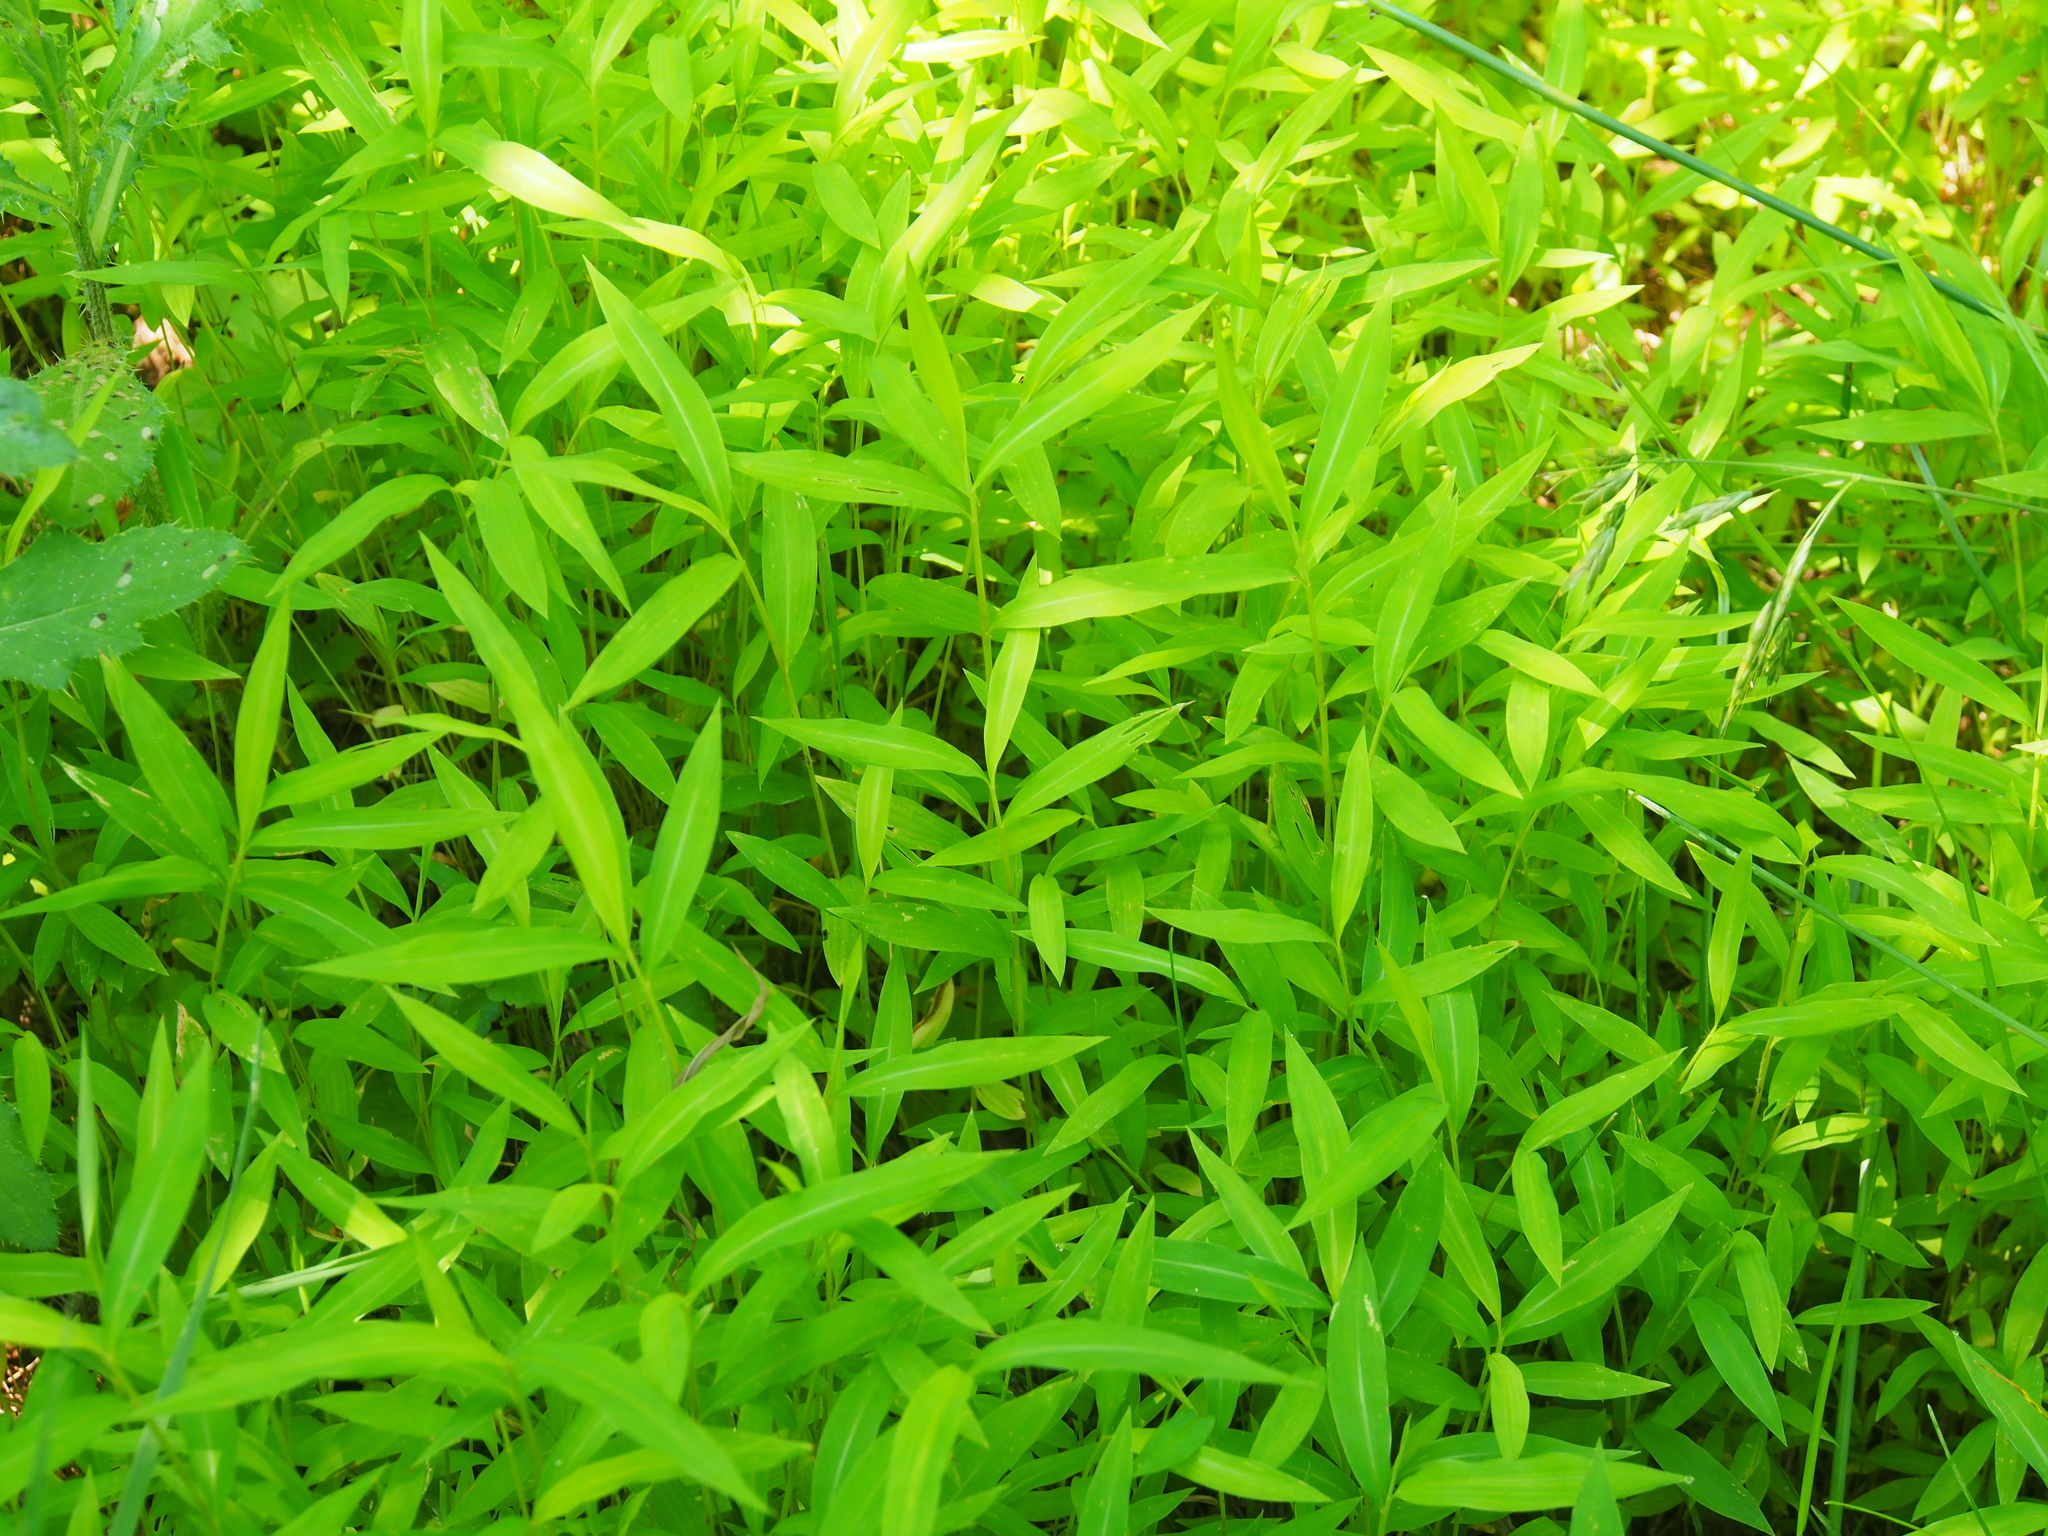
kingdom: Plantae
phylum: Tracheophyta
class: Liliopsida
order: Poales
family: Poaceae
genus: Microstegium
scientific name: Microstegium vimineum
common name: Japanese stiltgrass
